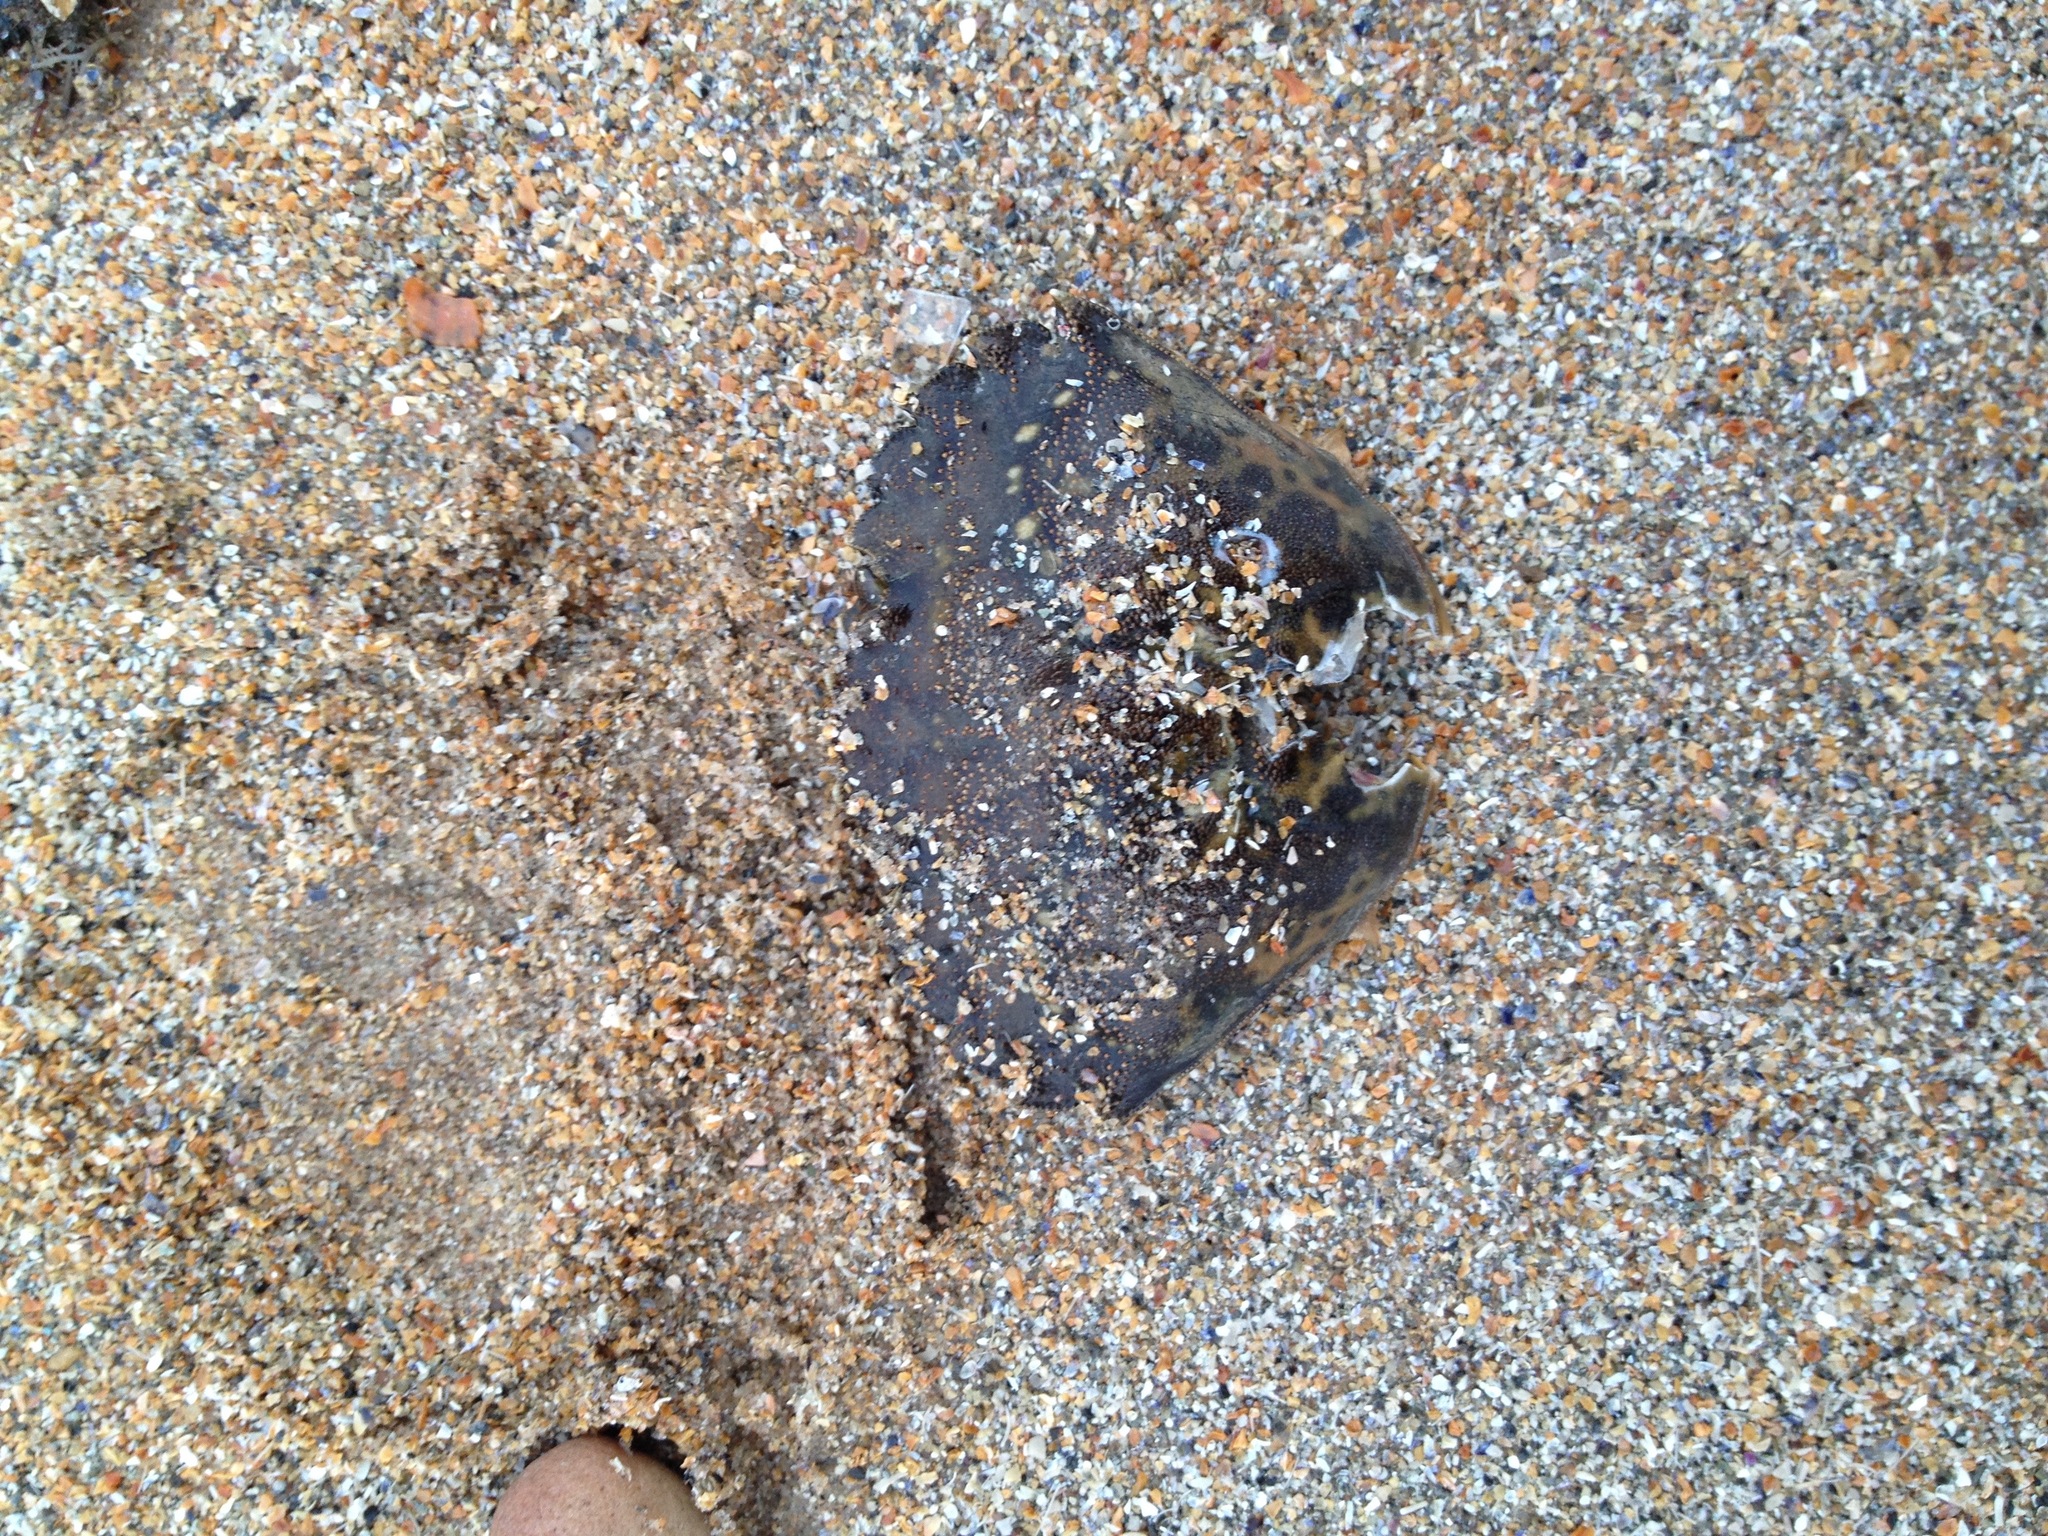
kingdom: Animalia
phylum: Arthropoda
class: Malacostraca
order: Decapoda
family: Carcinidae
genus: Carcinus
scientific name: Carcinus maenas
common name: European green crab
